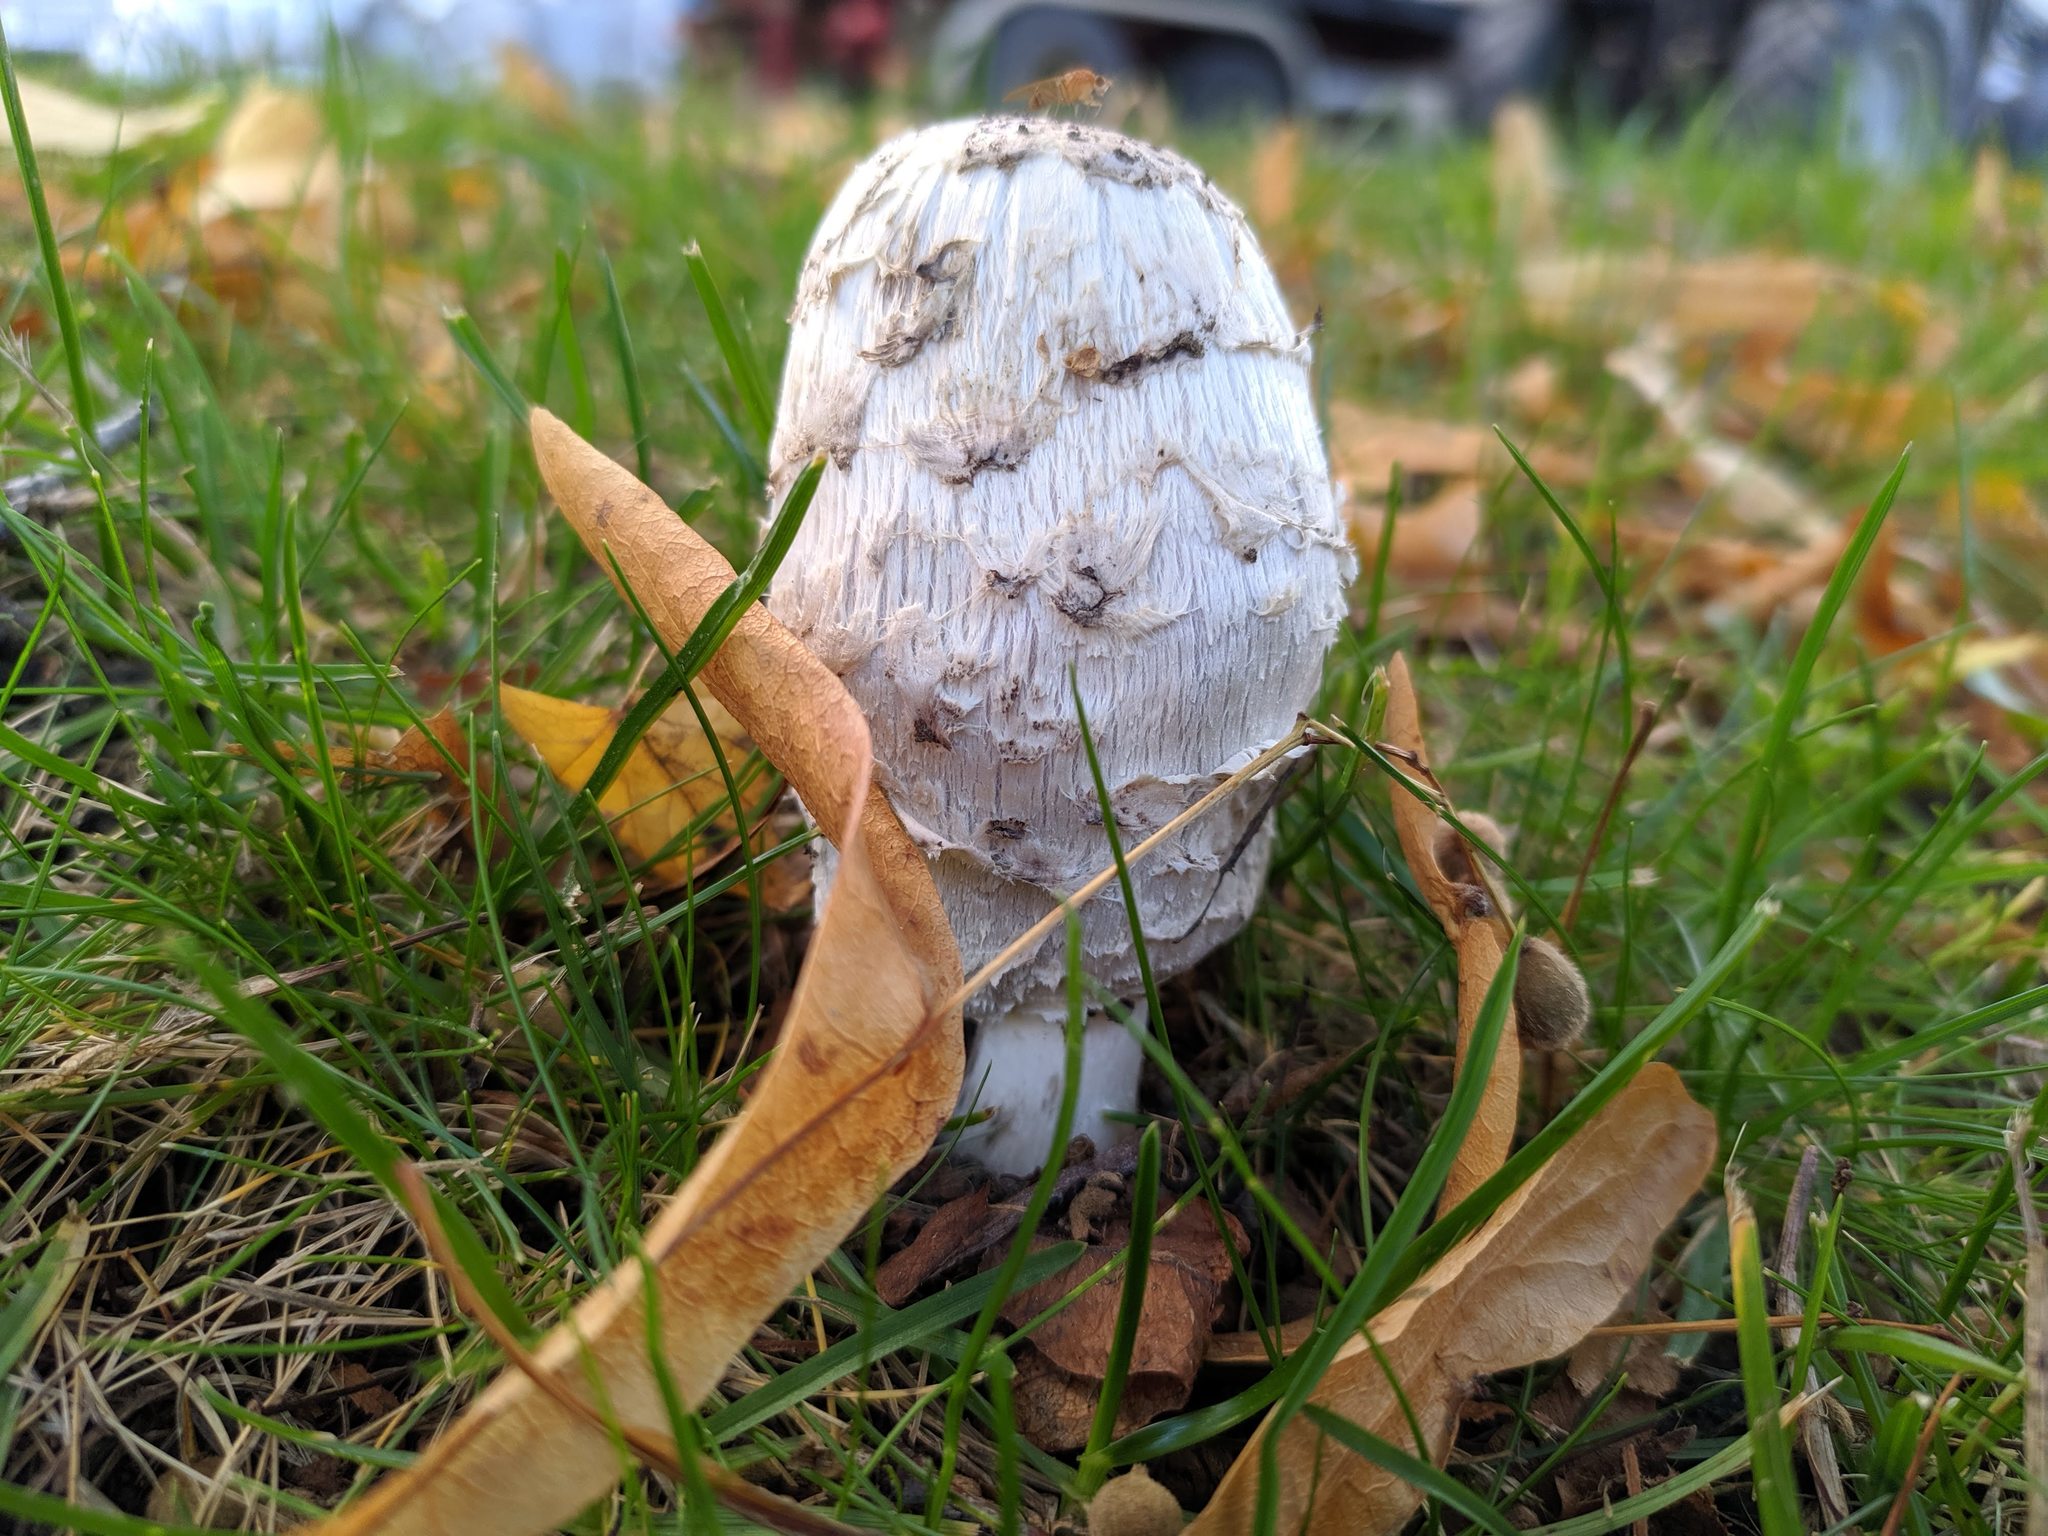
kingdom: Fungi
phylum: Basidiomycota
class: Agaricomycetes
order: Agaricales
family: Agaricaceae
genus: Coprinus
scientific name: Coprinus comatus
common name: Lawyer's wig
